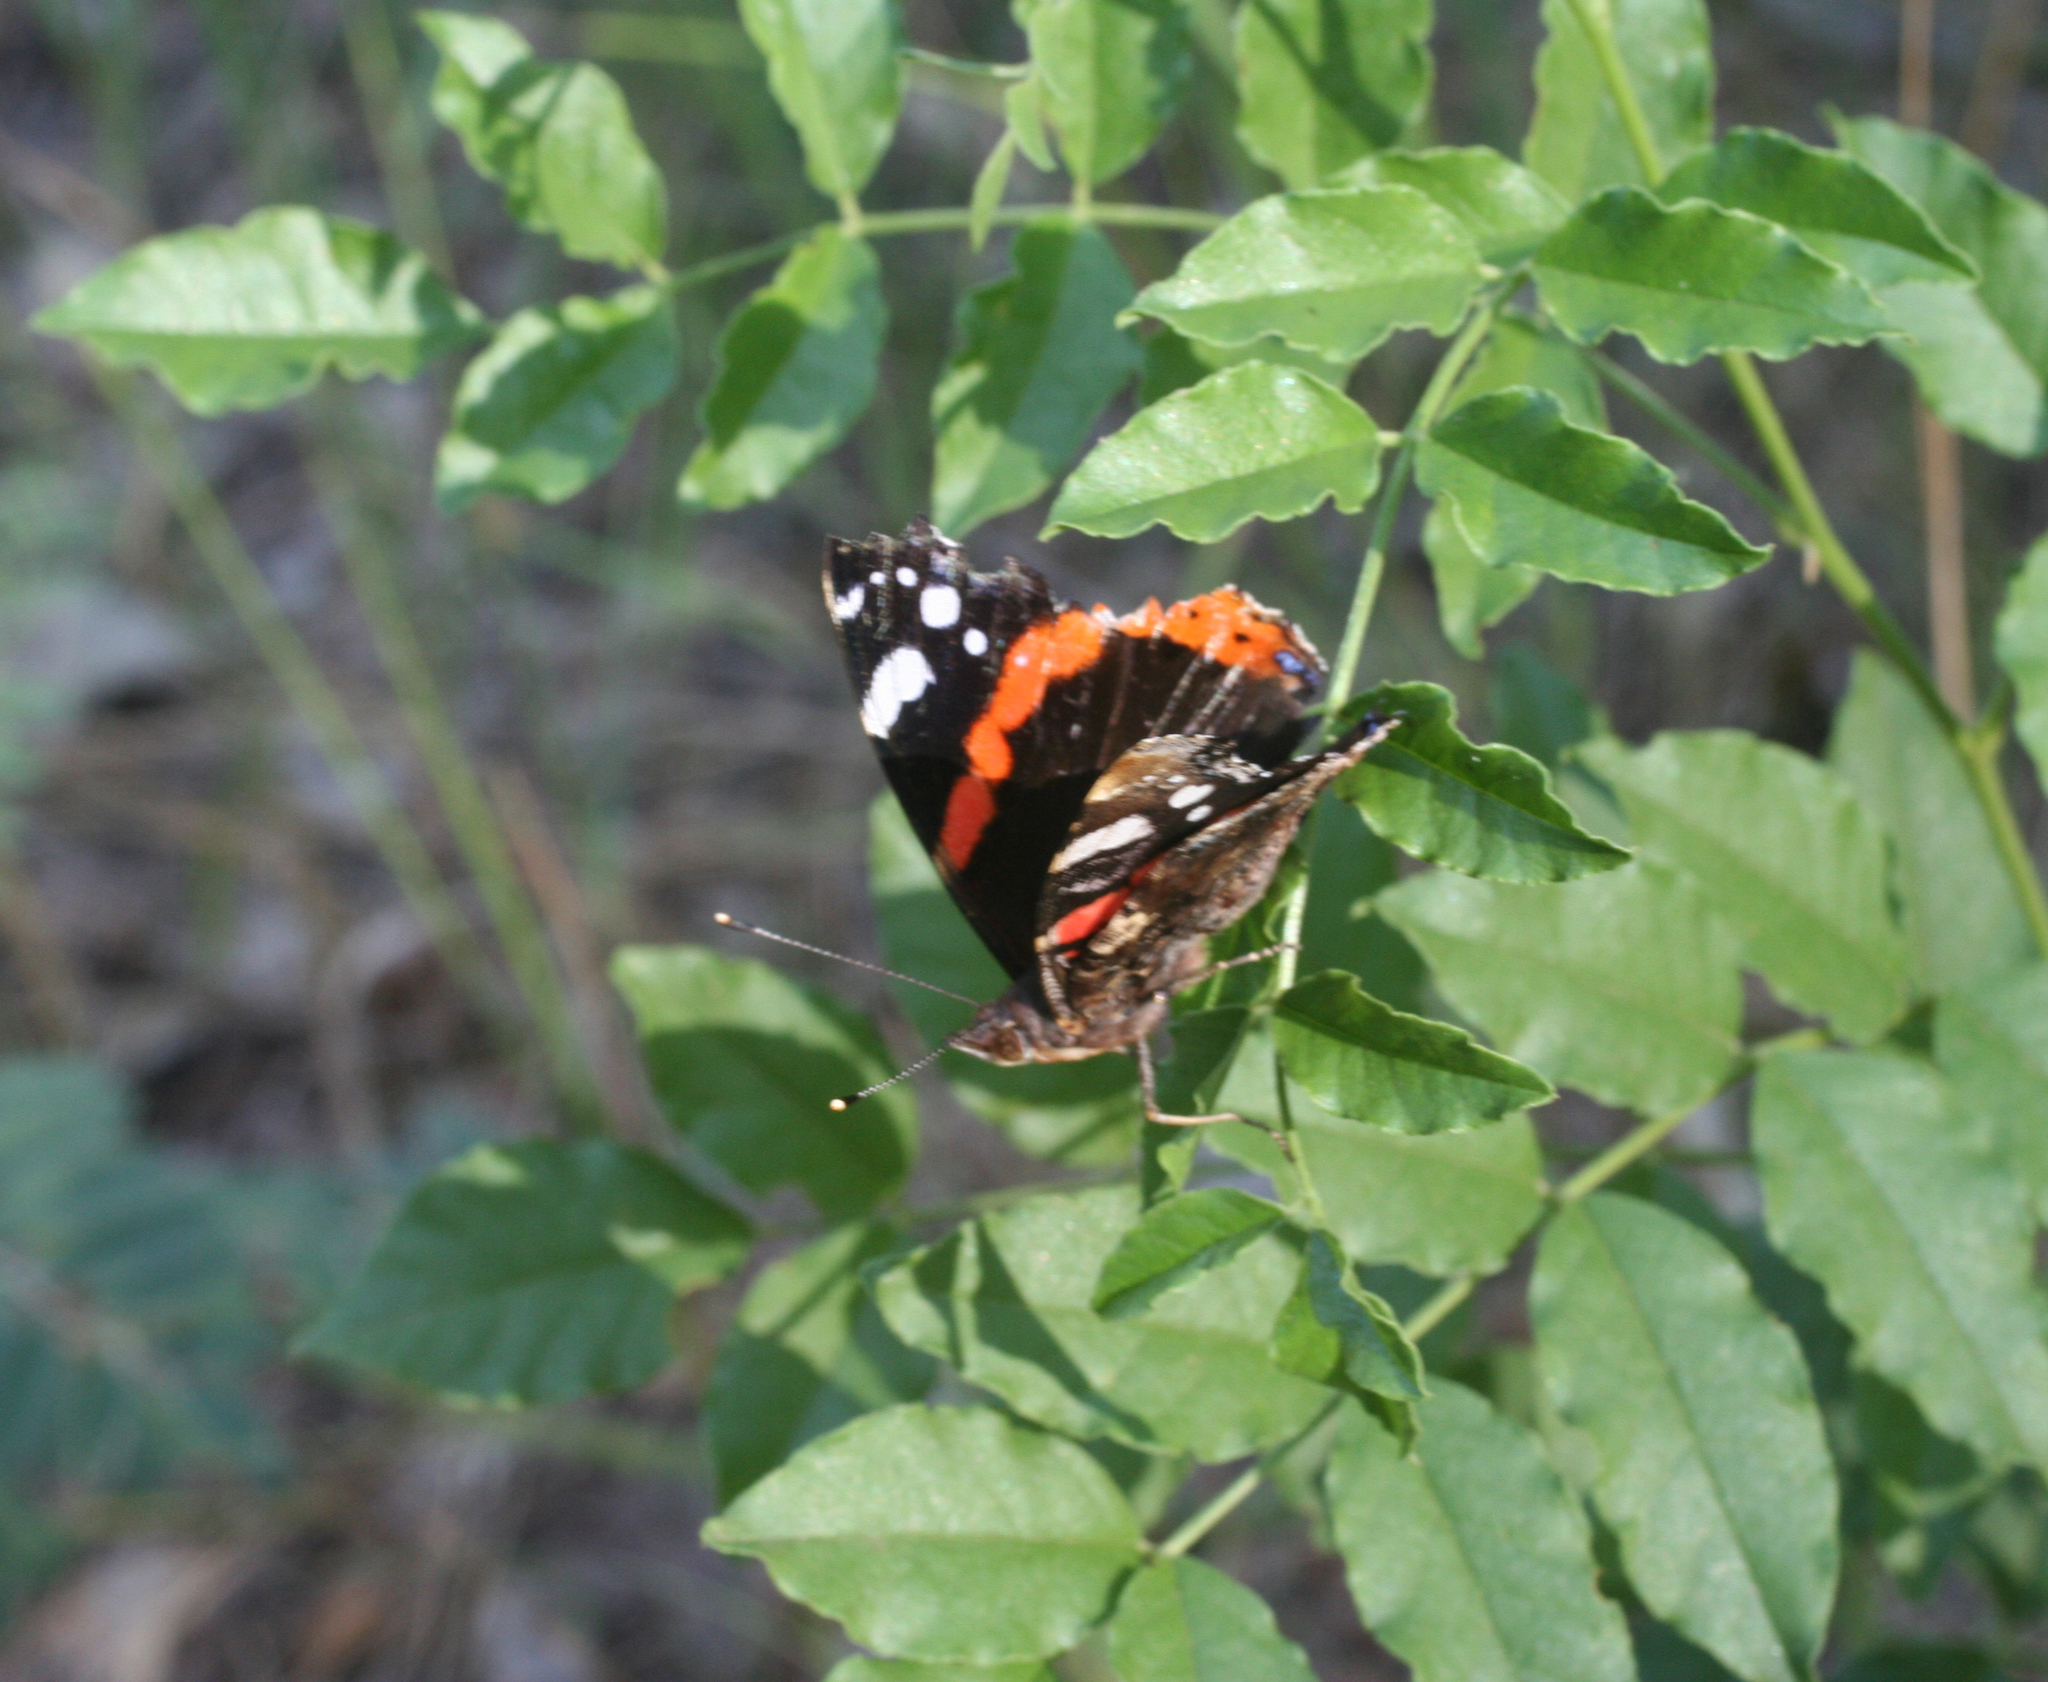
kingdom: Animalia
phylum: Arthropoda
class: Insecta
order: Lepidoptera
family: Nymphalidae
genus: Vanessa
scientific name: Vanessa atalanta
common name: Red admiral
